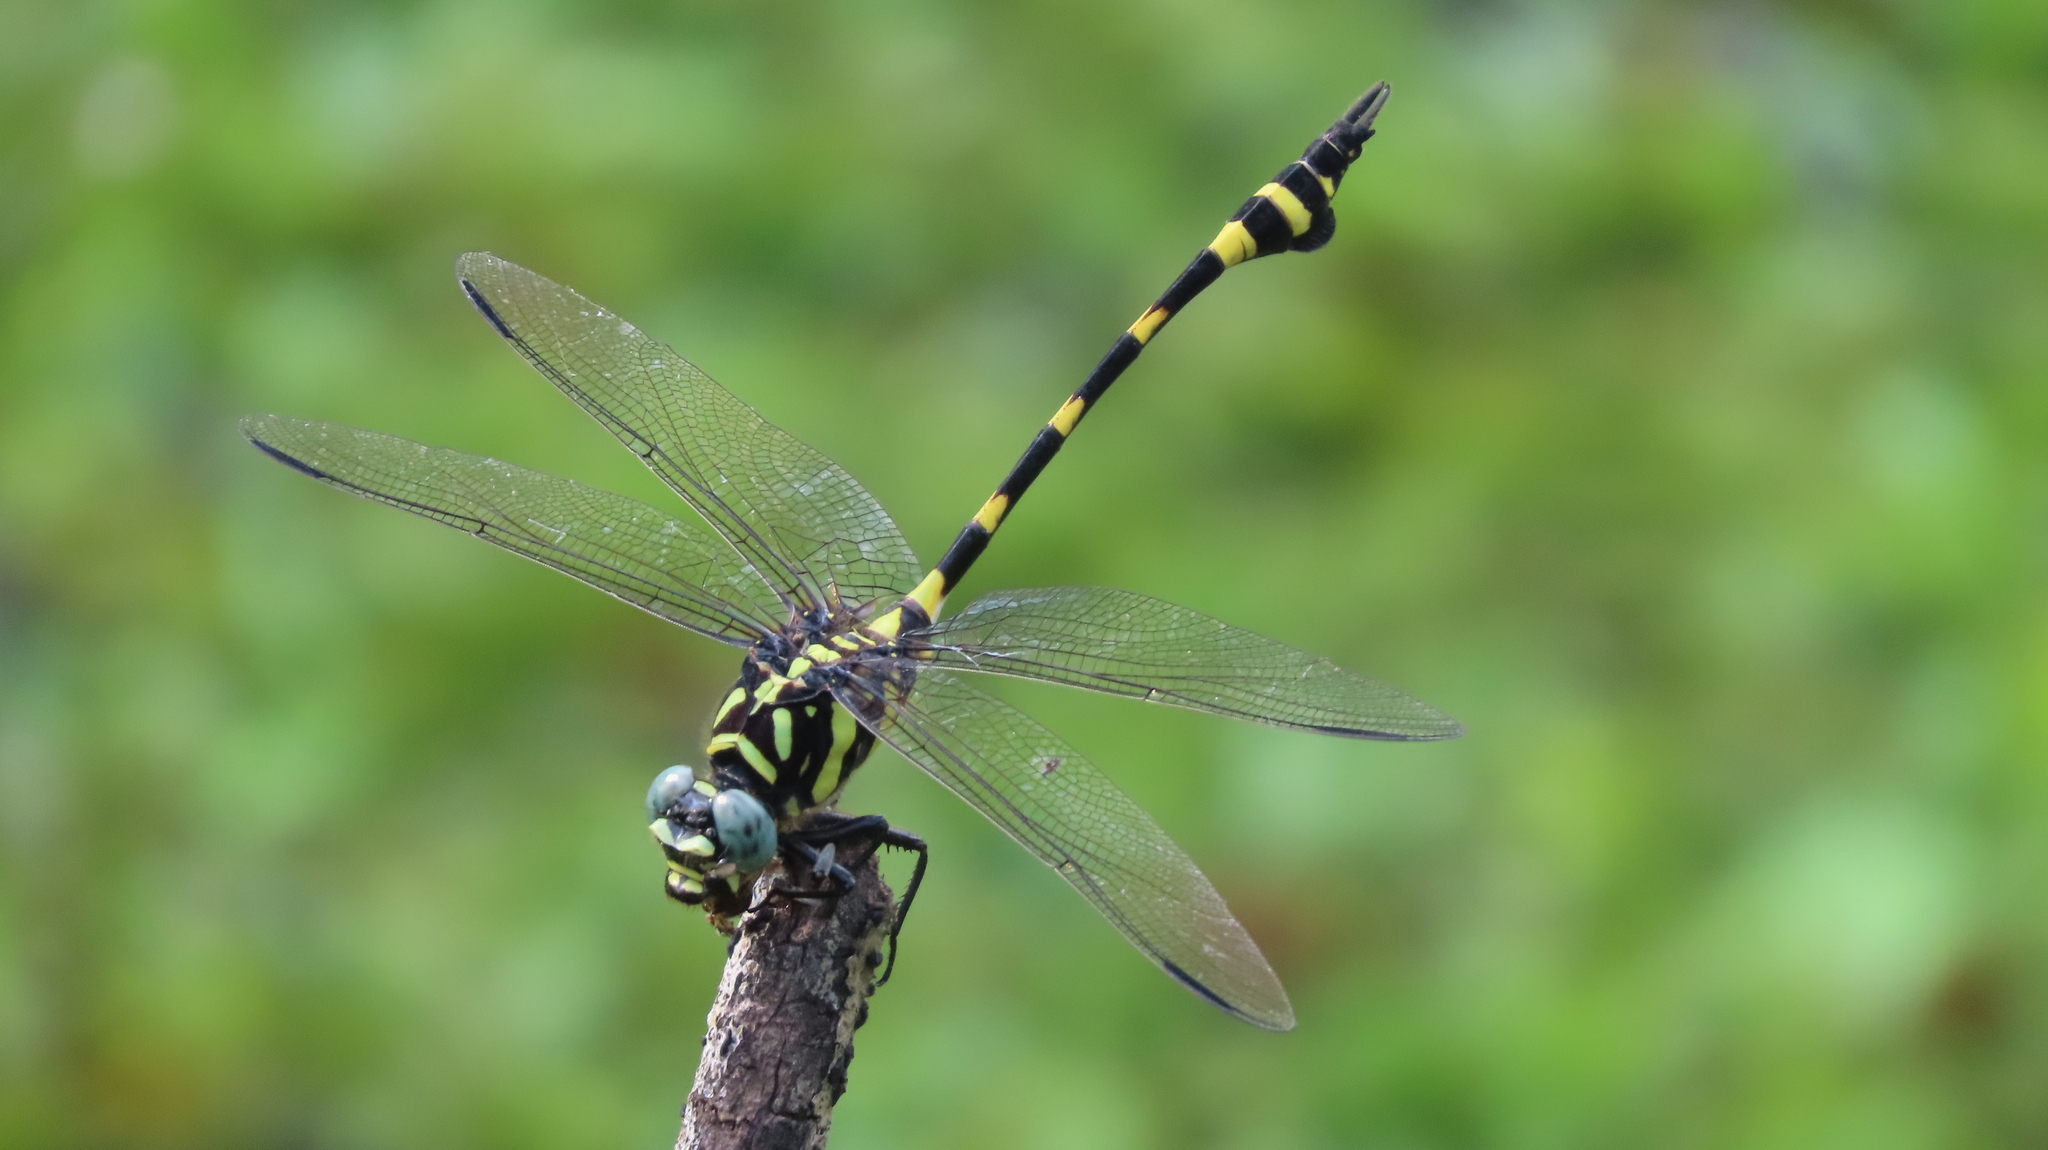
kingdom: Animalia
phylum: Arthropoda
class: Insecta
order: Odonata
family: Gomphidae
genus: Ictinogomphus
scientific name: Ictinogomphus rapax
